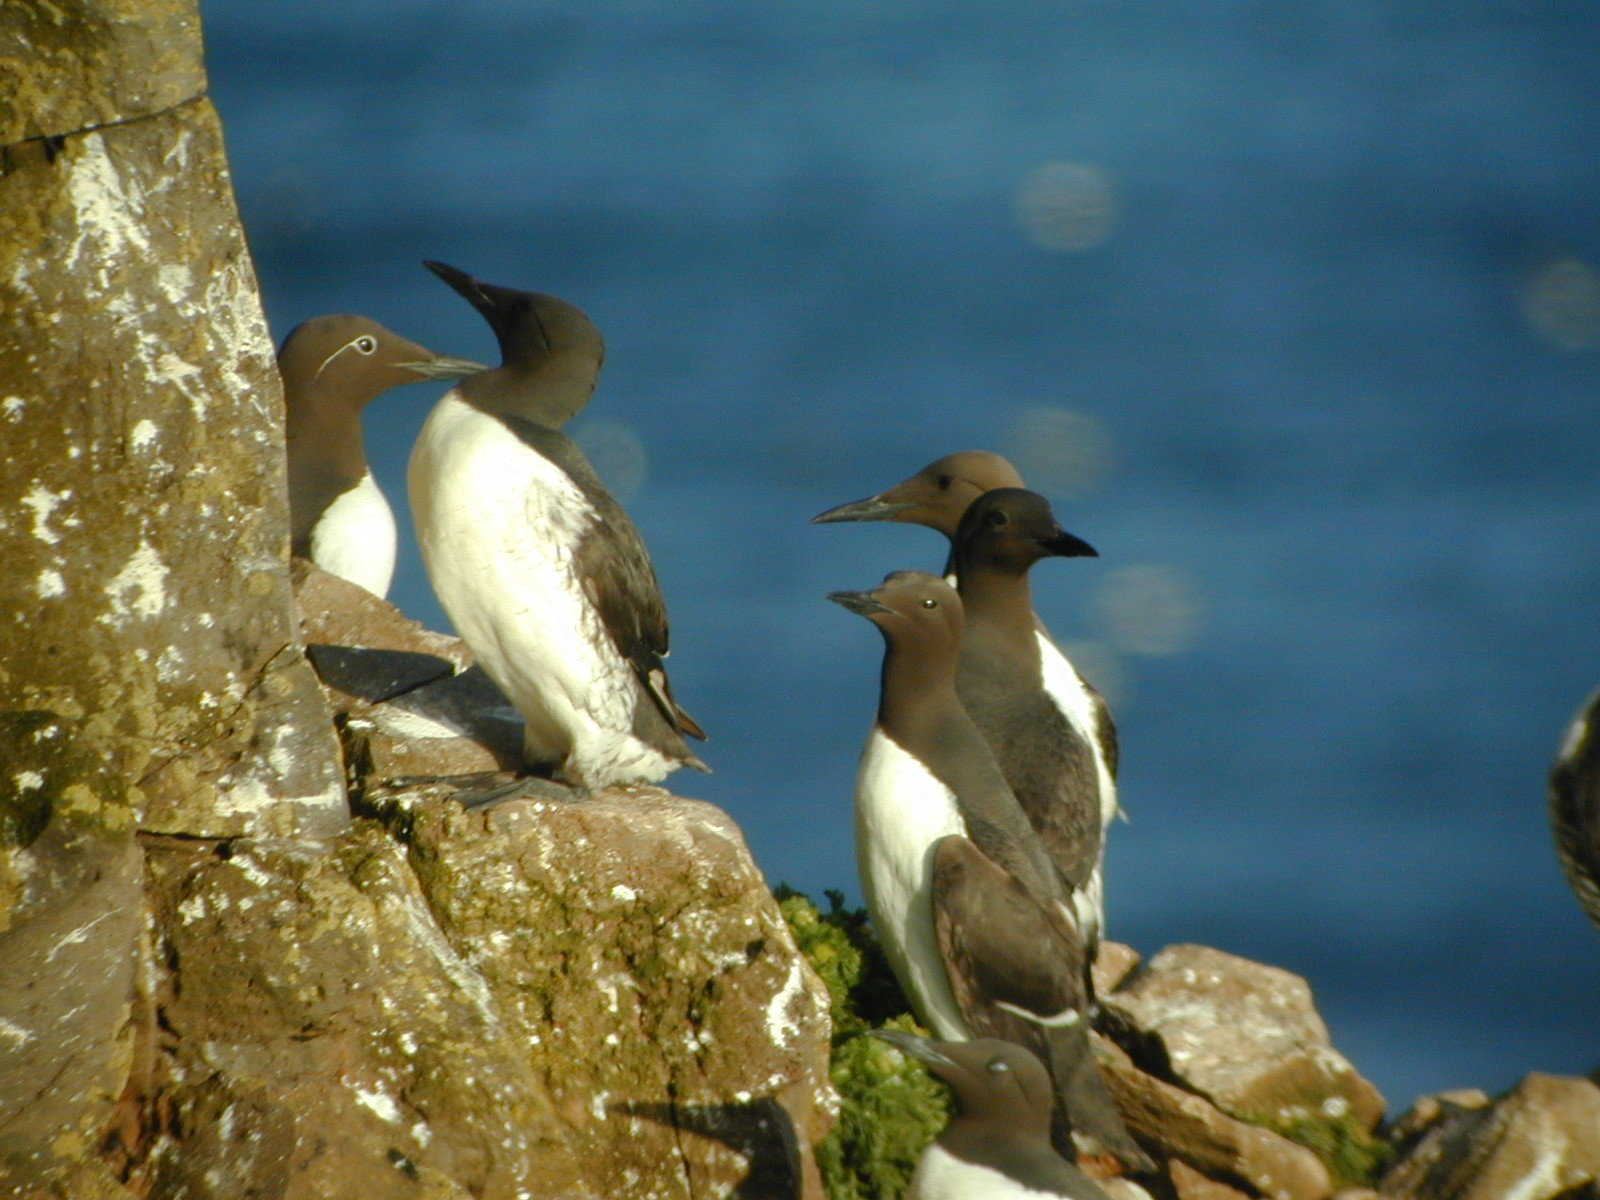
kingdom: Animalia
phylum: Chordata
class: Aves
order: Charadriiformes
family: Alcidae
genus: Uria
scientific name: Uria aalge
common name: Common murre
